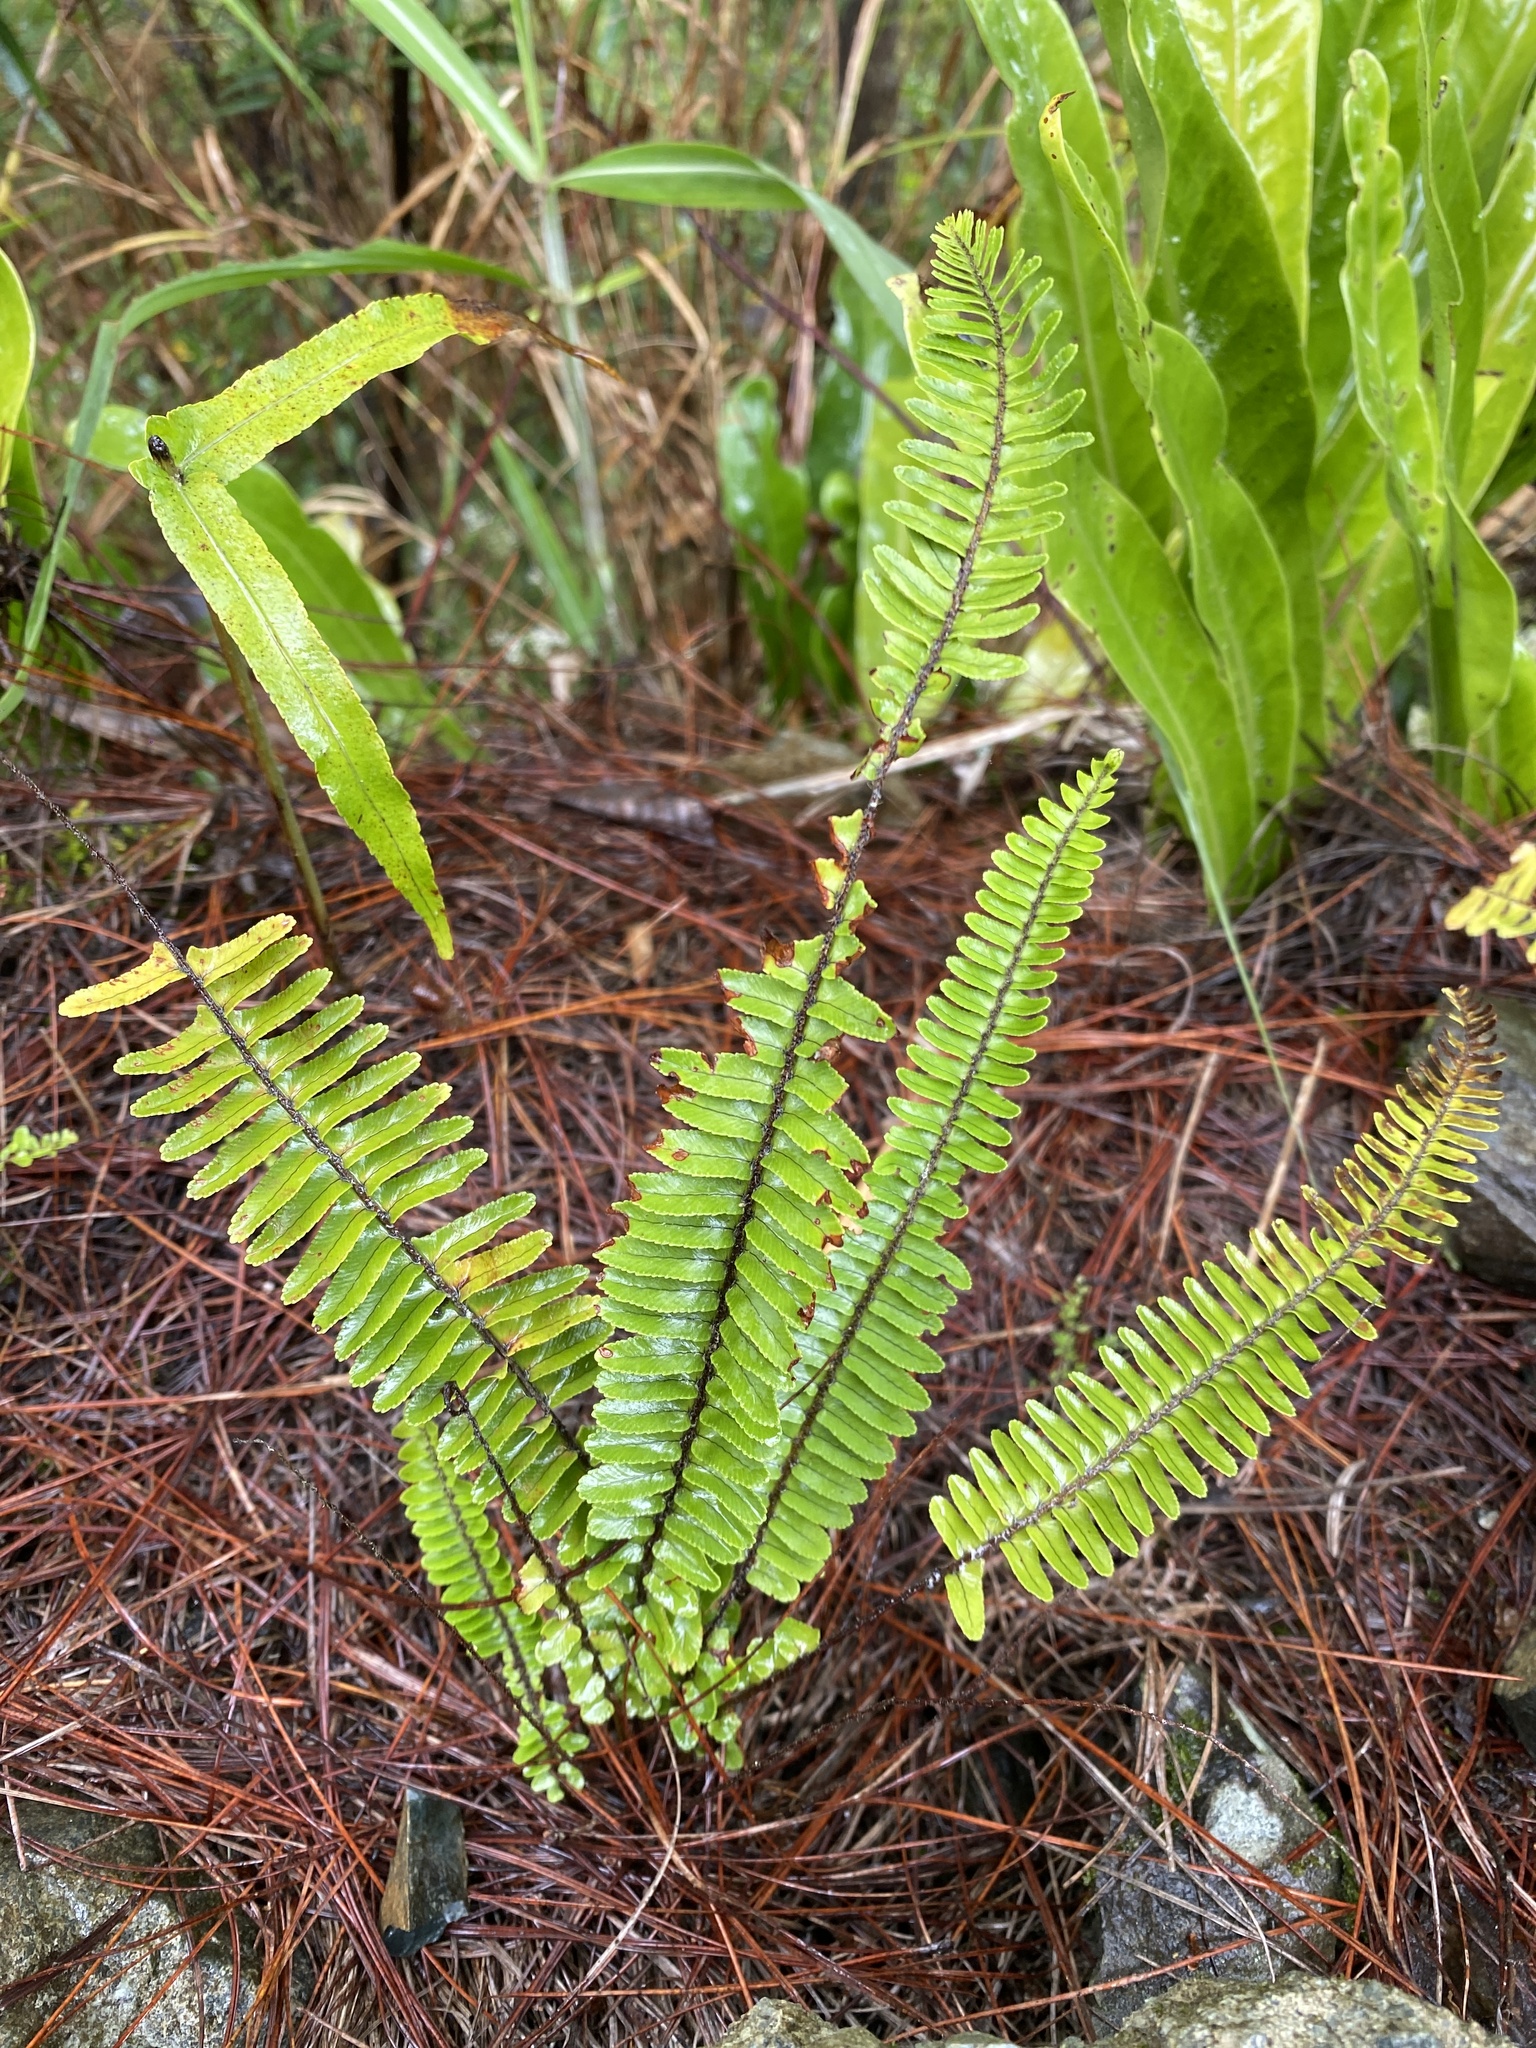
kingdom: Plantae
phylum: Tracheophyta
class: Polypodiopsida
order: Polypodiales
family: Nephrolepidaceae
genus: Nephrolepis
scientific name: Nephrolepis cordifolia
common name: Narrow swordfern
